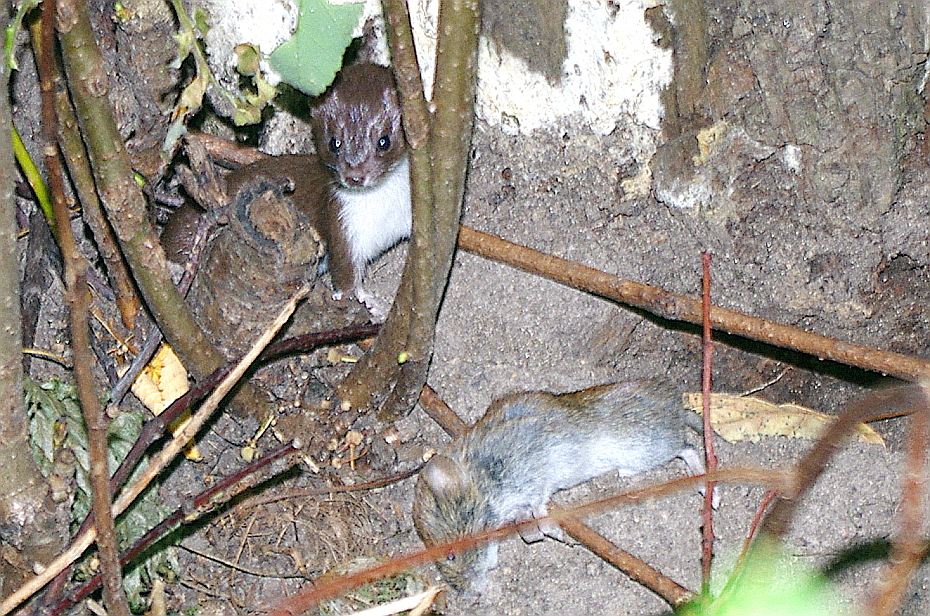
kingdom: Animalia
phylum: Chordata
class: Mammalia
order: Rodentia
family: Cricetidae
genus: Myodes
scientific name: Myodes glareolus
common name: Bank vole
